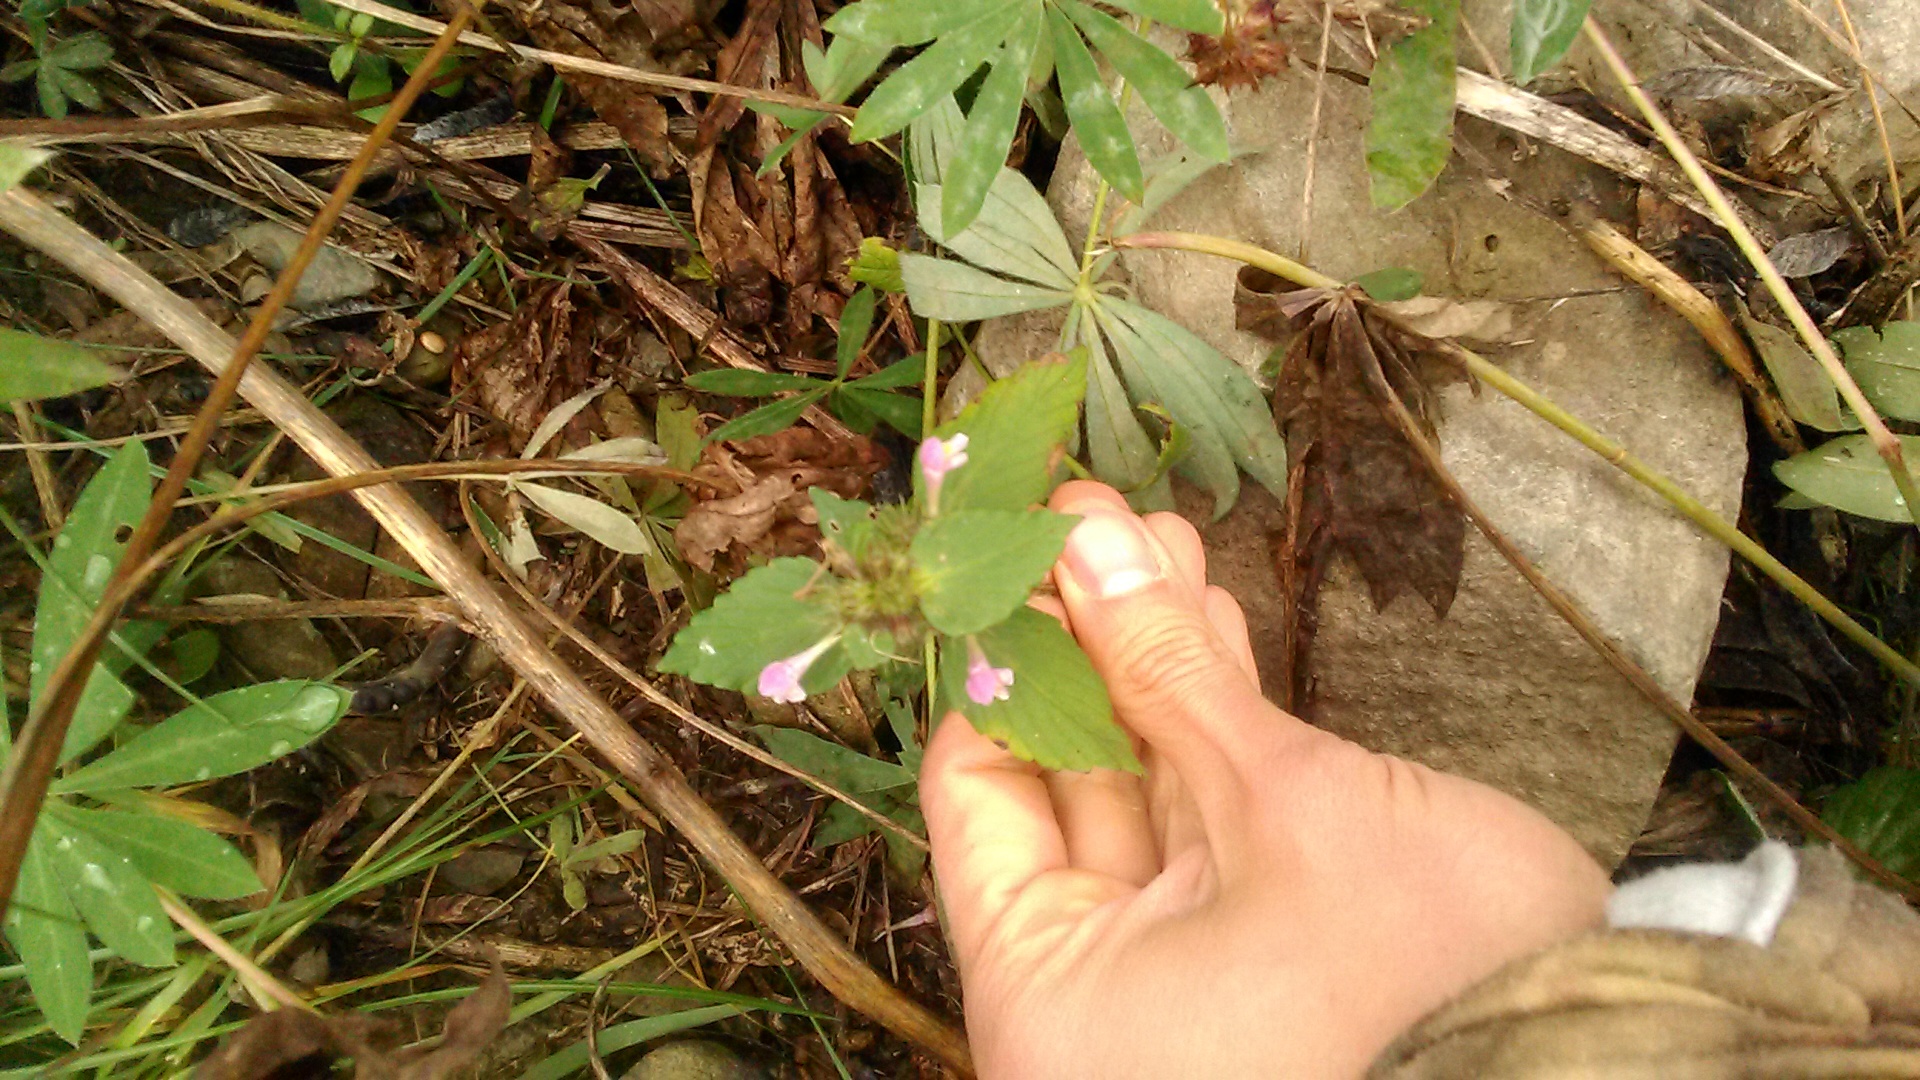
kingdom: Plantae
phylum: Tracheophyta
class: Magnoliopsida
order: Lamiales
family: Lamiaceae
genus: Galeopsis
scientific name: Galeopsis bifida
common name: Bifid hemp-nettle
